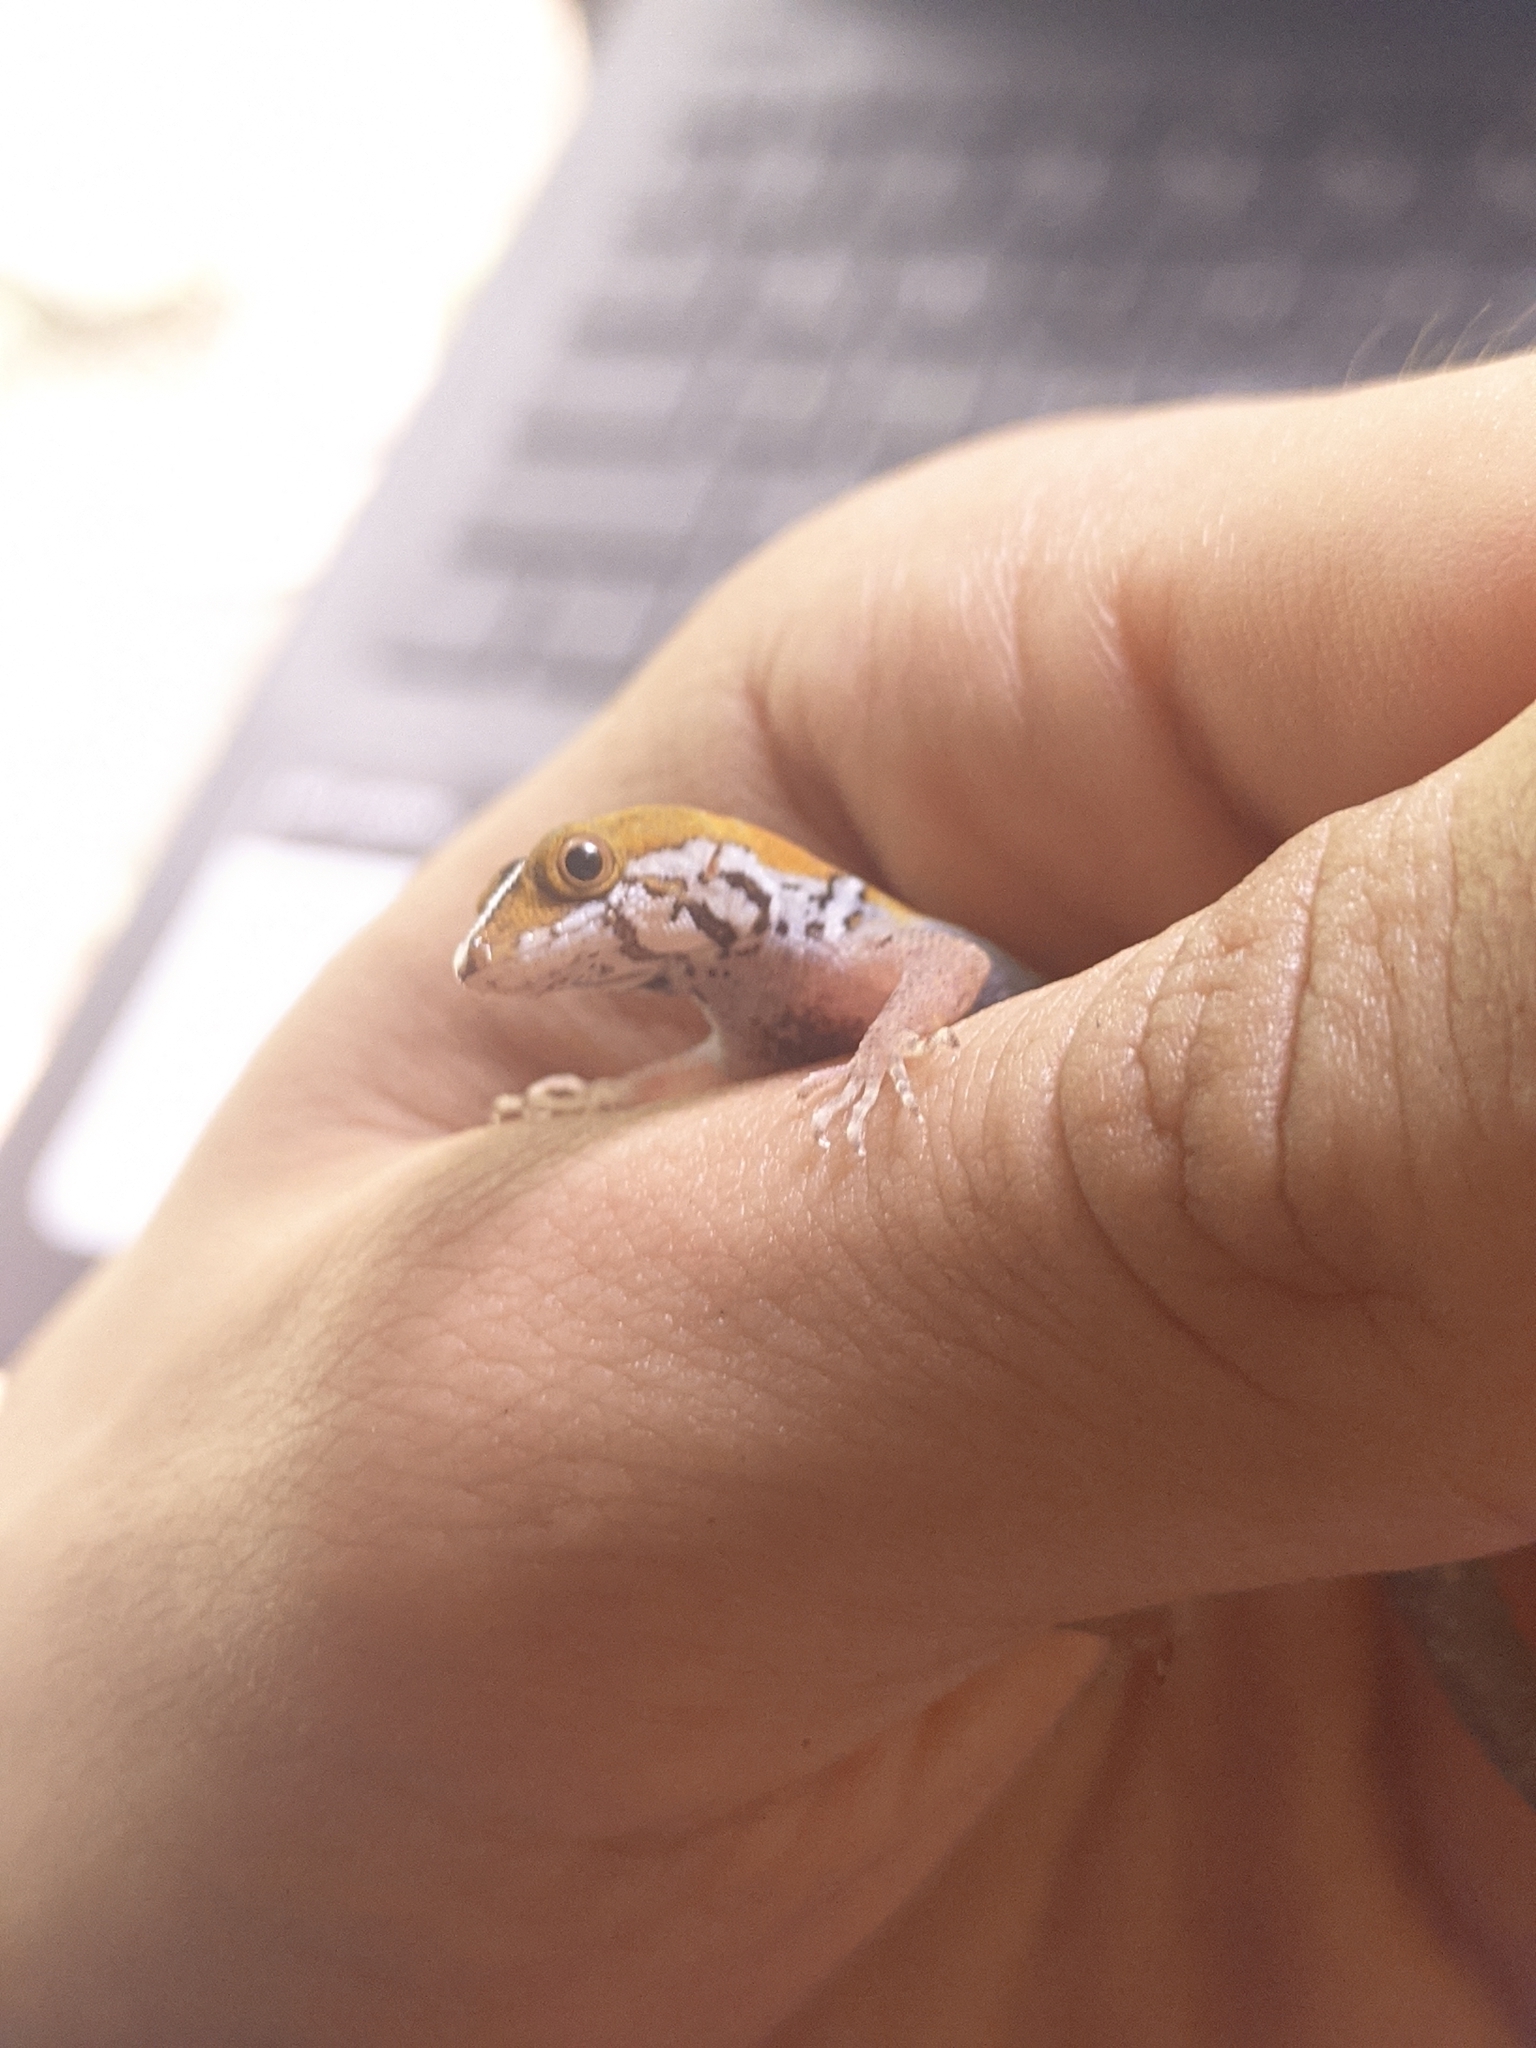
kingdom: Animalia
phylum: Chordata
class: Squamata
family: Sphaerodactylidae
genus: Gonatodes
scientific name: Gonatodes vittatus
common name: Wiegmann's striped gecko
